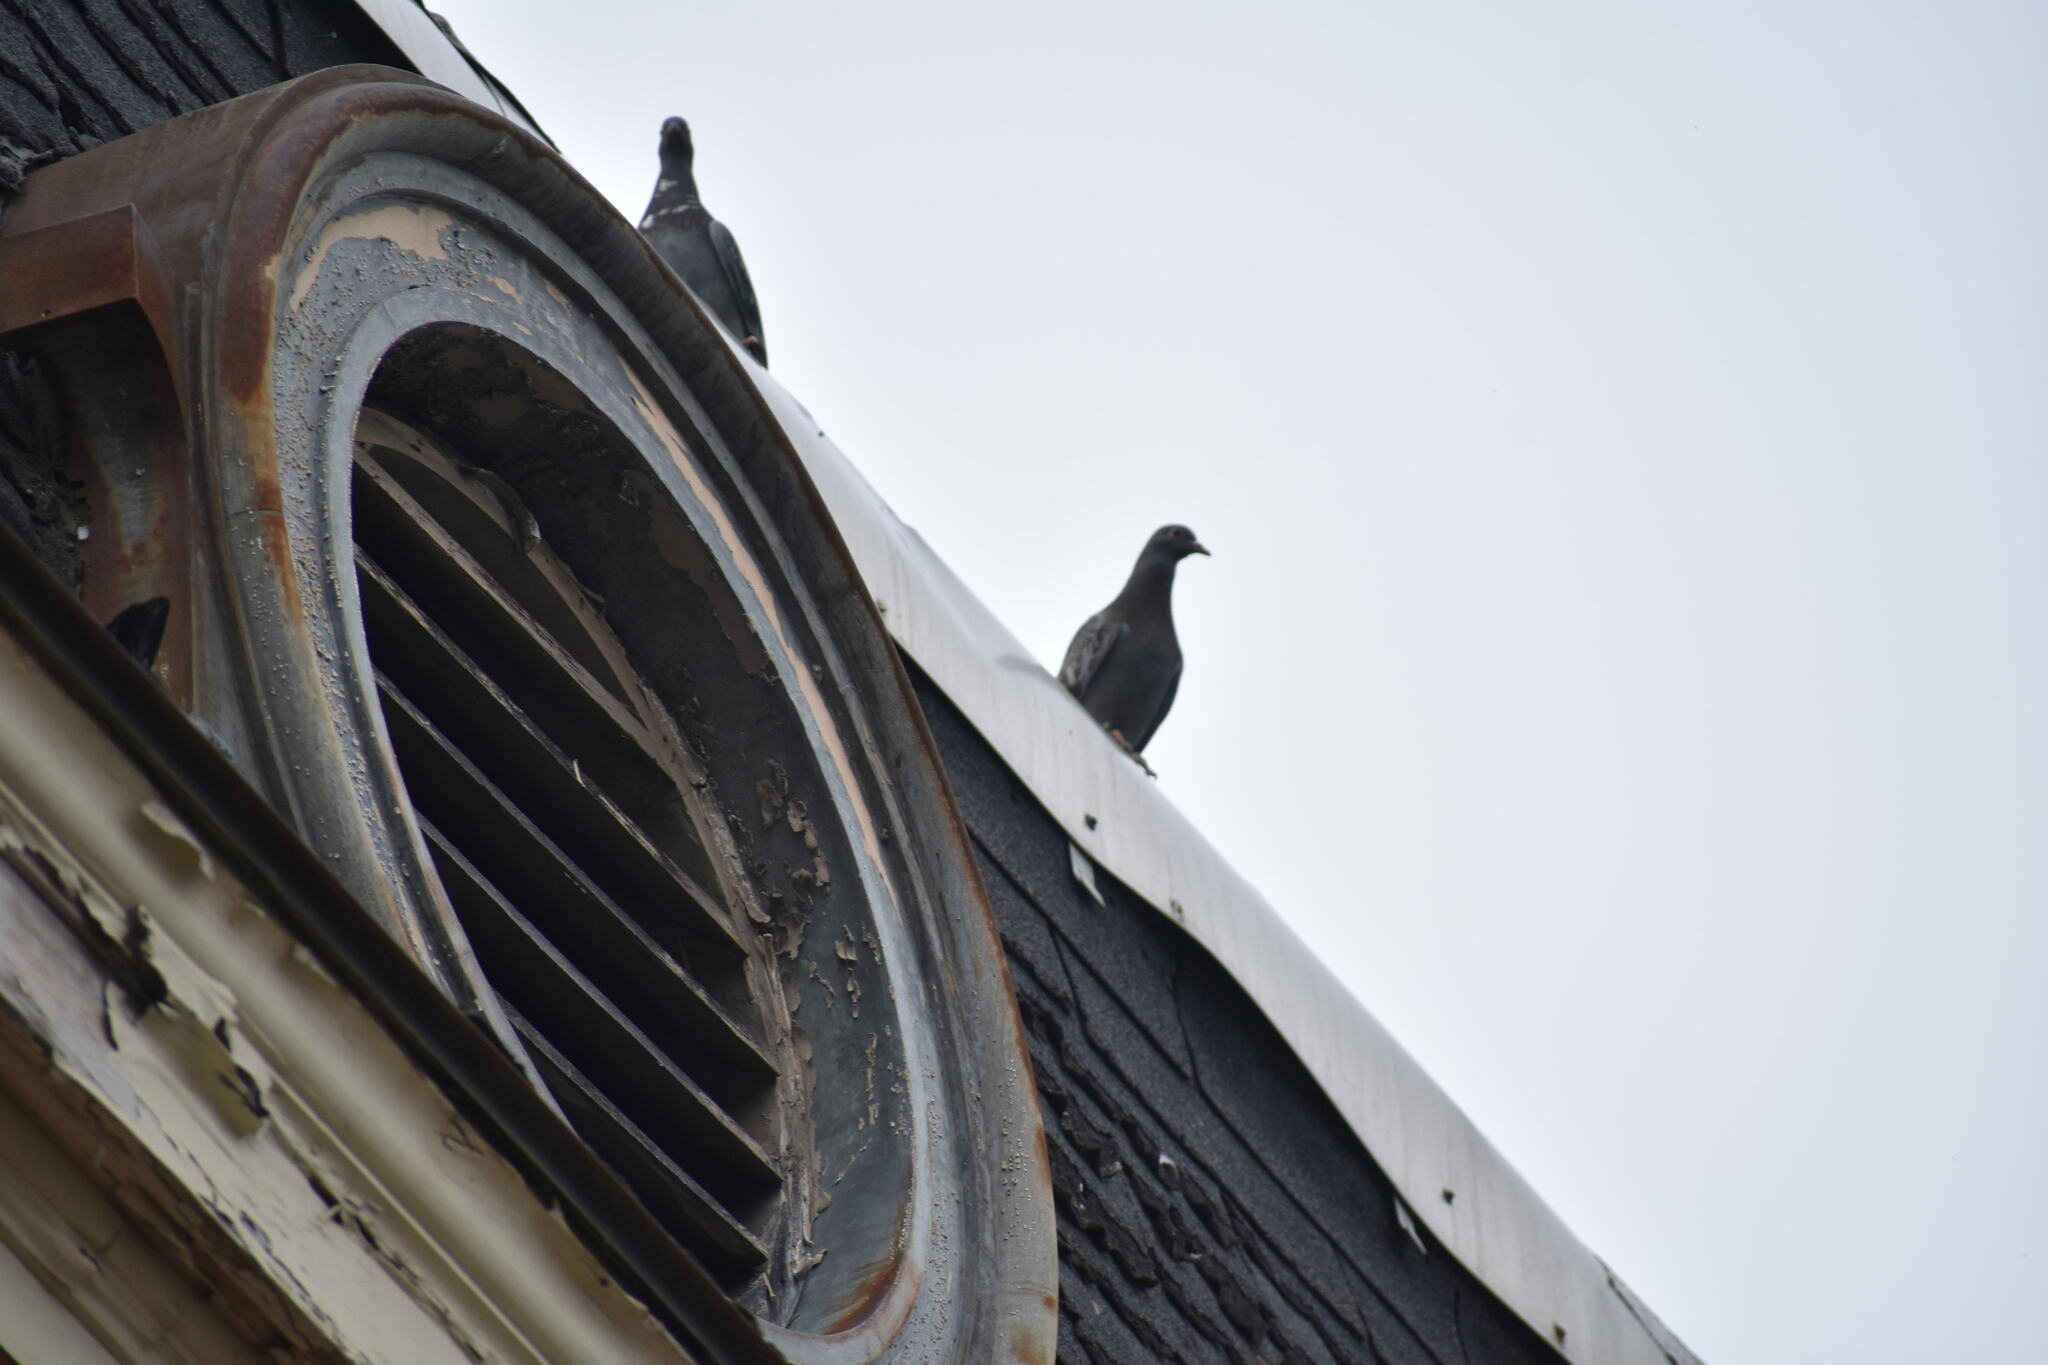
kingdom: Animalia
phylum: Chordata
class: Aves
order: Columbiformes
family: Columbidae
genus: Columba
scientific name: Columba livia
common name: Rock pigeon
